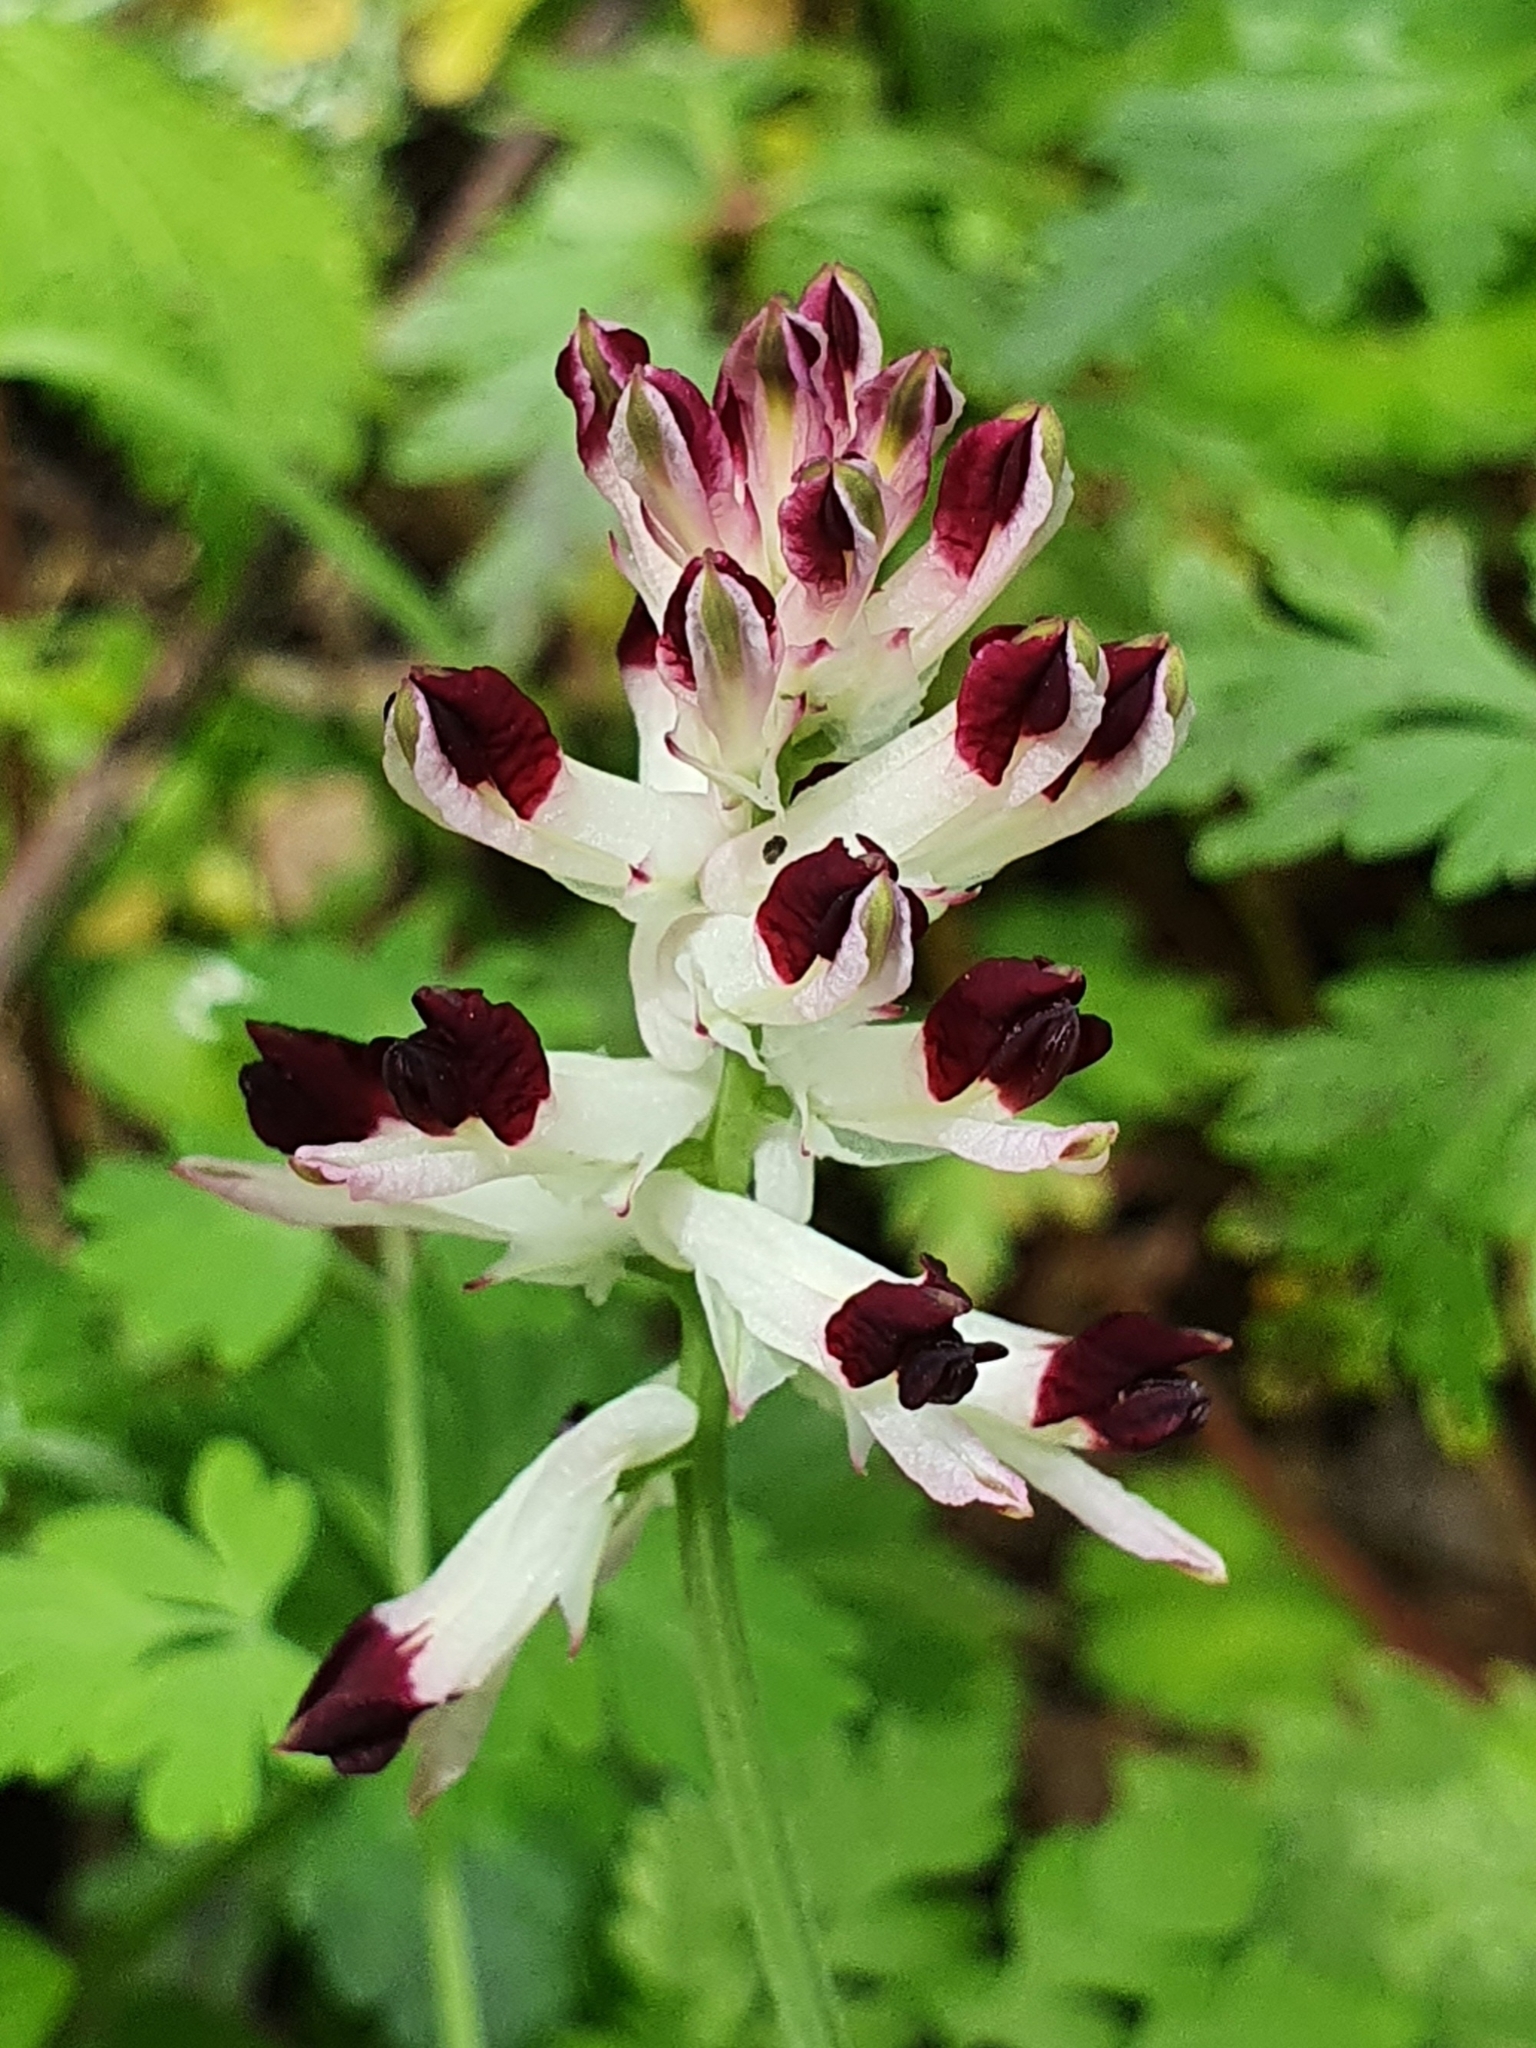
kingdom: Plantae
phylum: Tracheophyta
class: Magnoliopsida
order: Ranunculales
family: Papaveraceae
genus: Fumaria
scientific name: Fumaria flabellata
